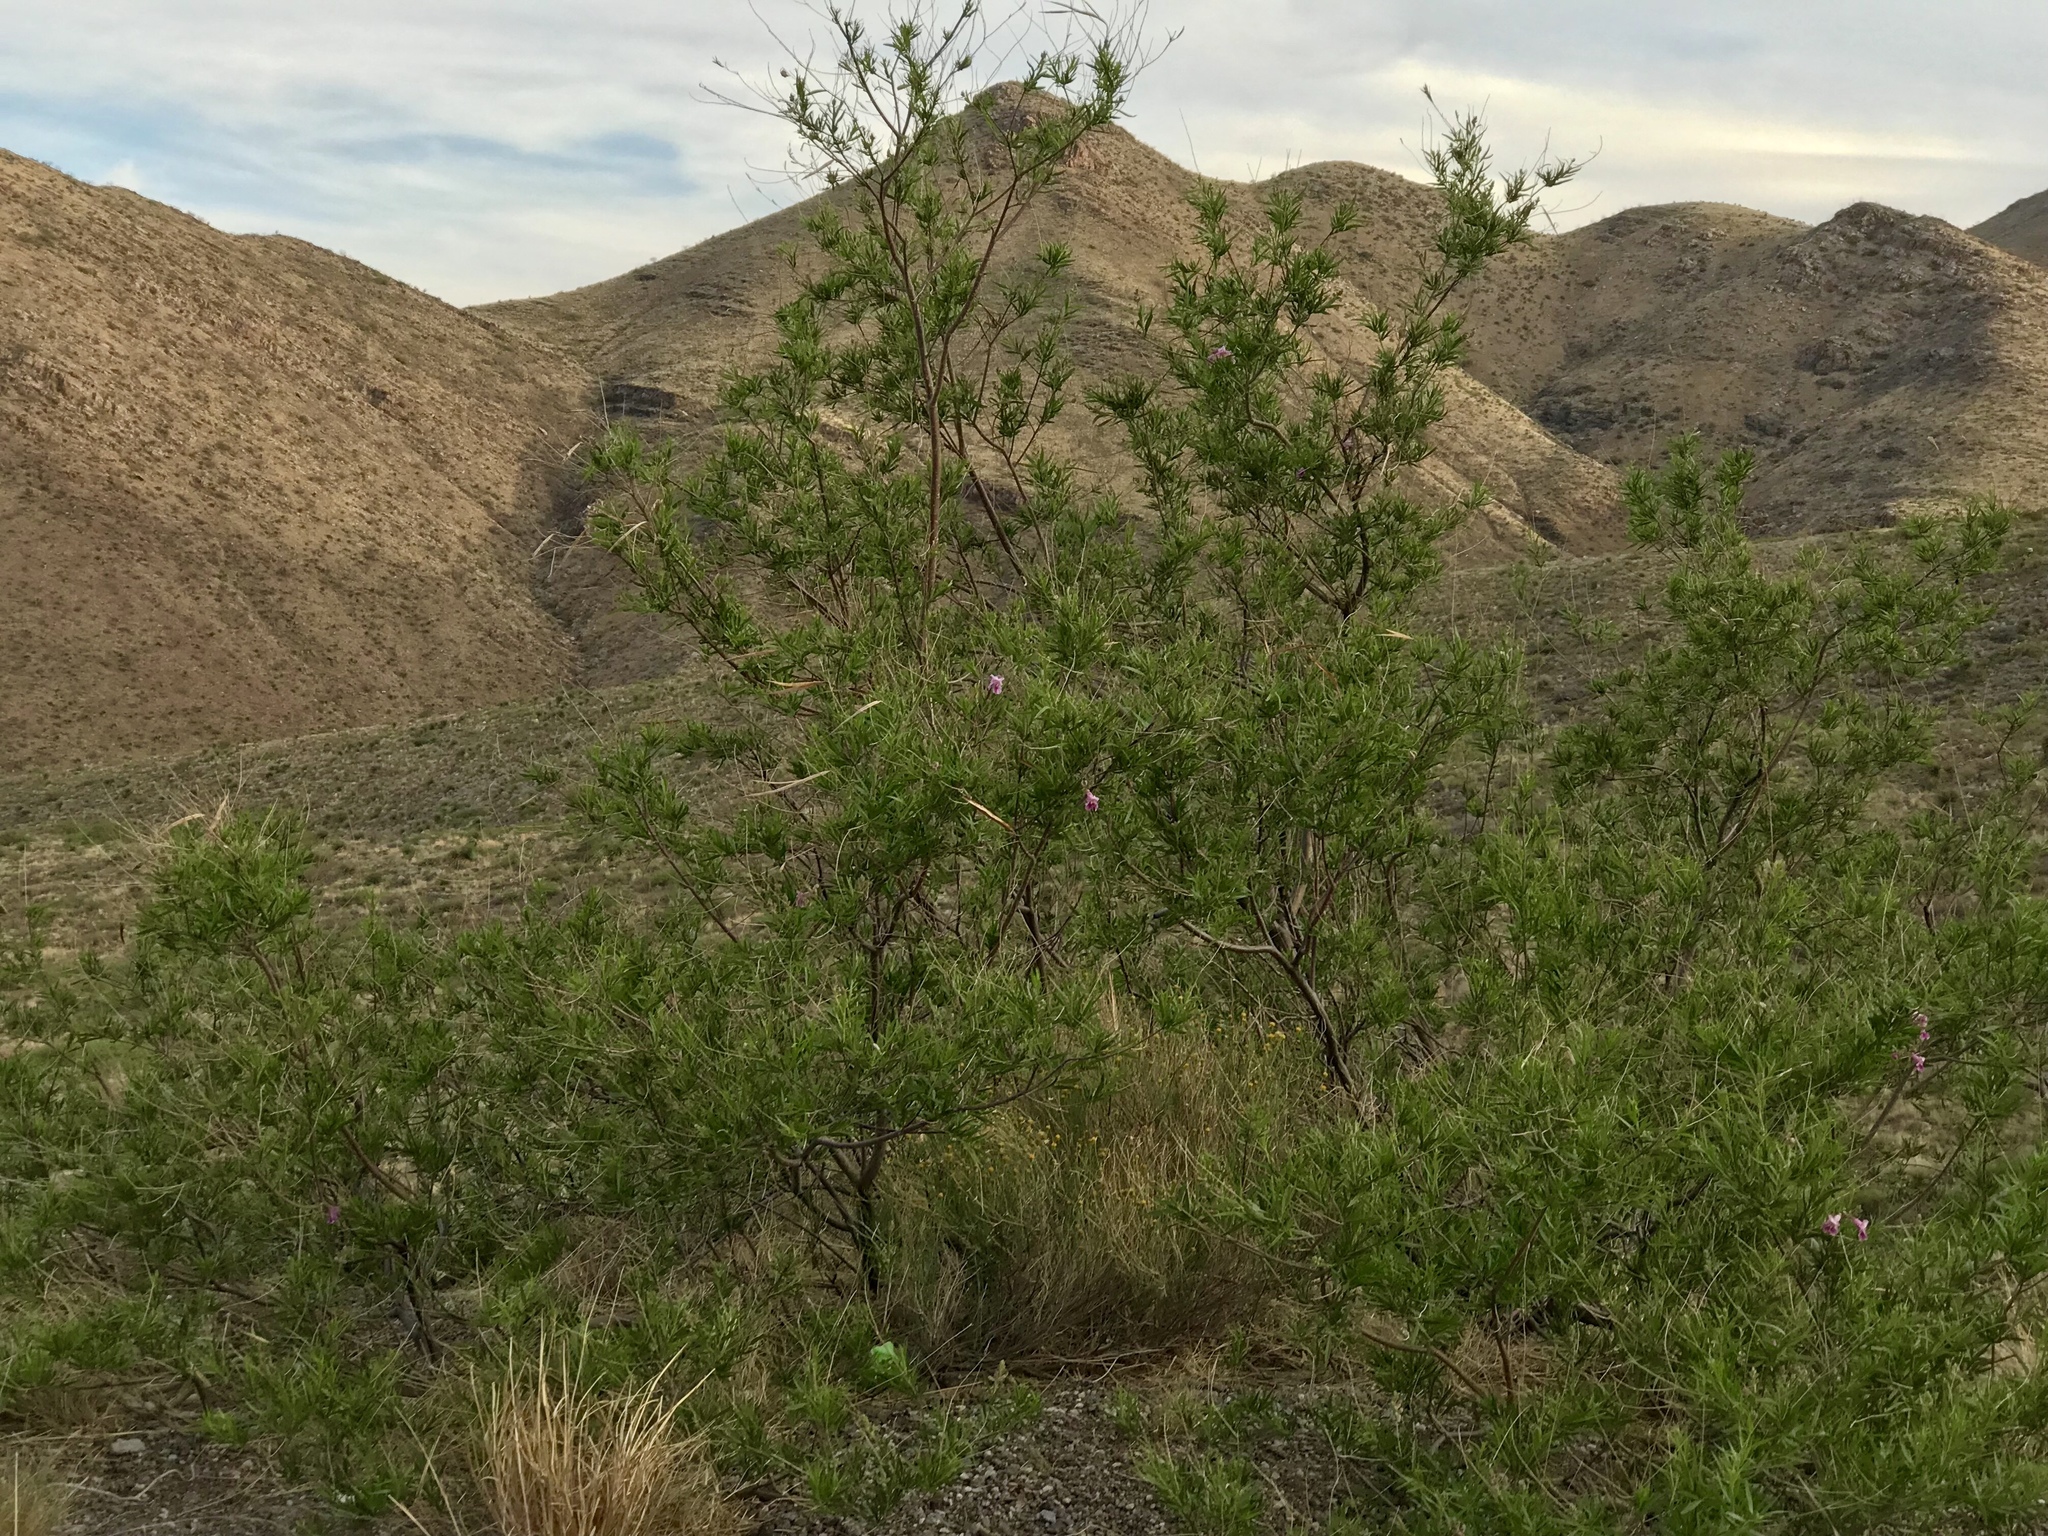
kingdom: Plantae
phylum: Tracheophyta
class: Magnoliopsida
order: Lamiales
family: Bignoniaceae
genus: Chilopsis
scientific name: Chilopsis linearis
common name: Desert-willow
